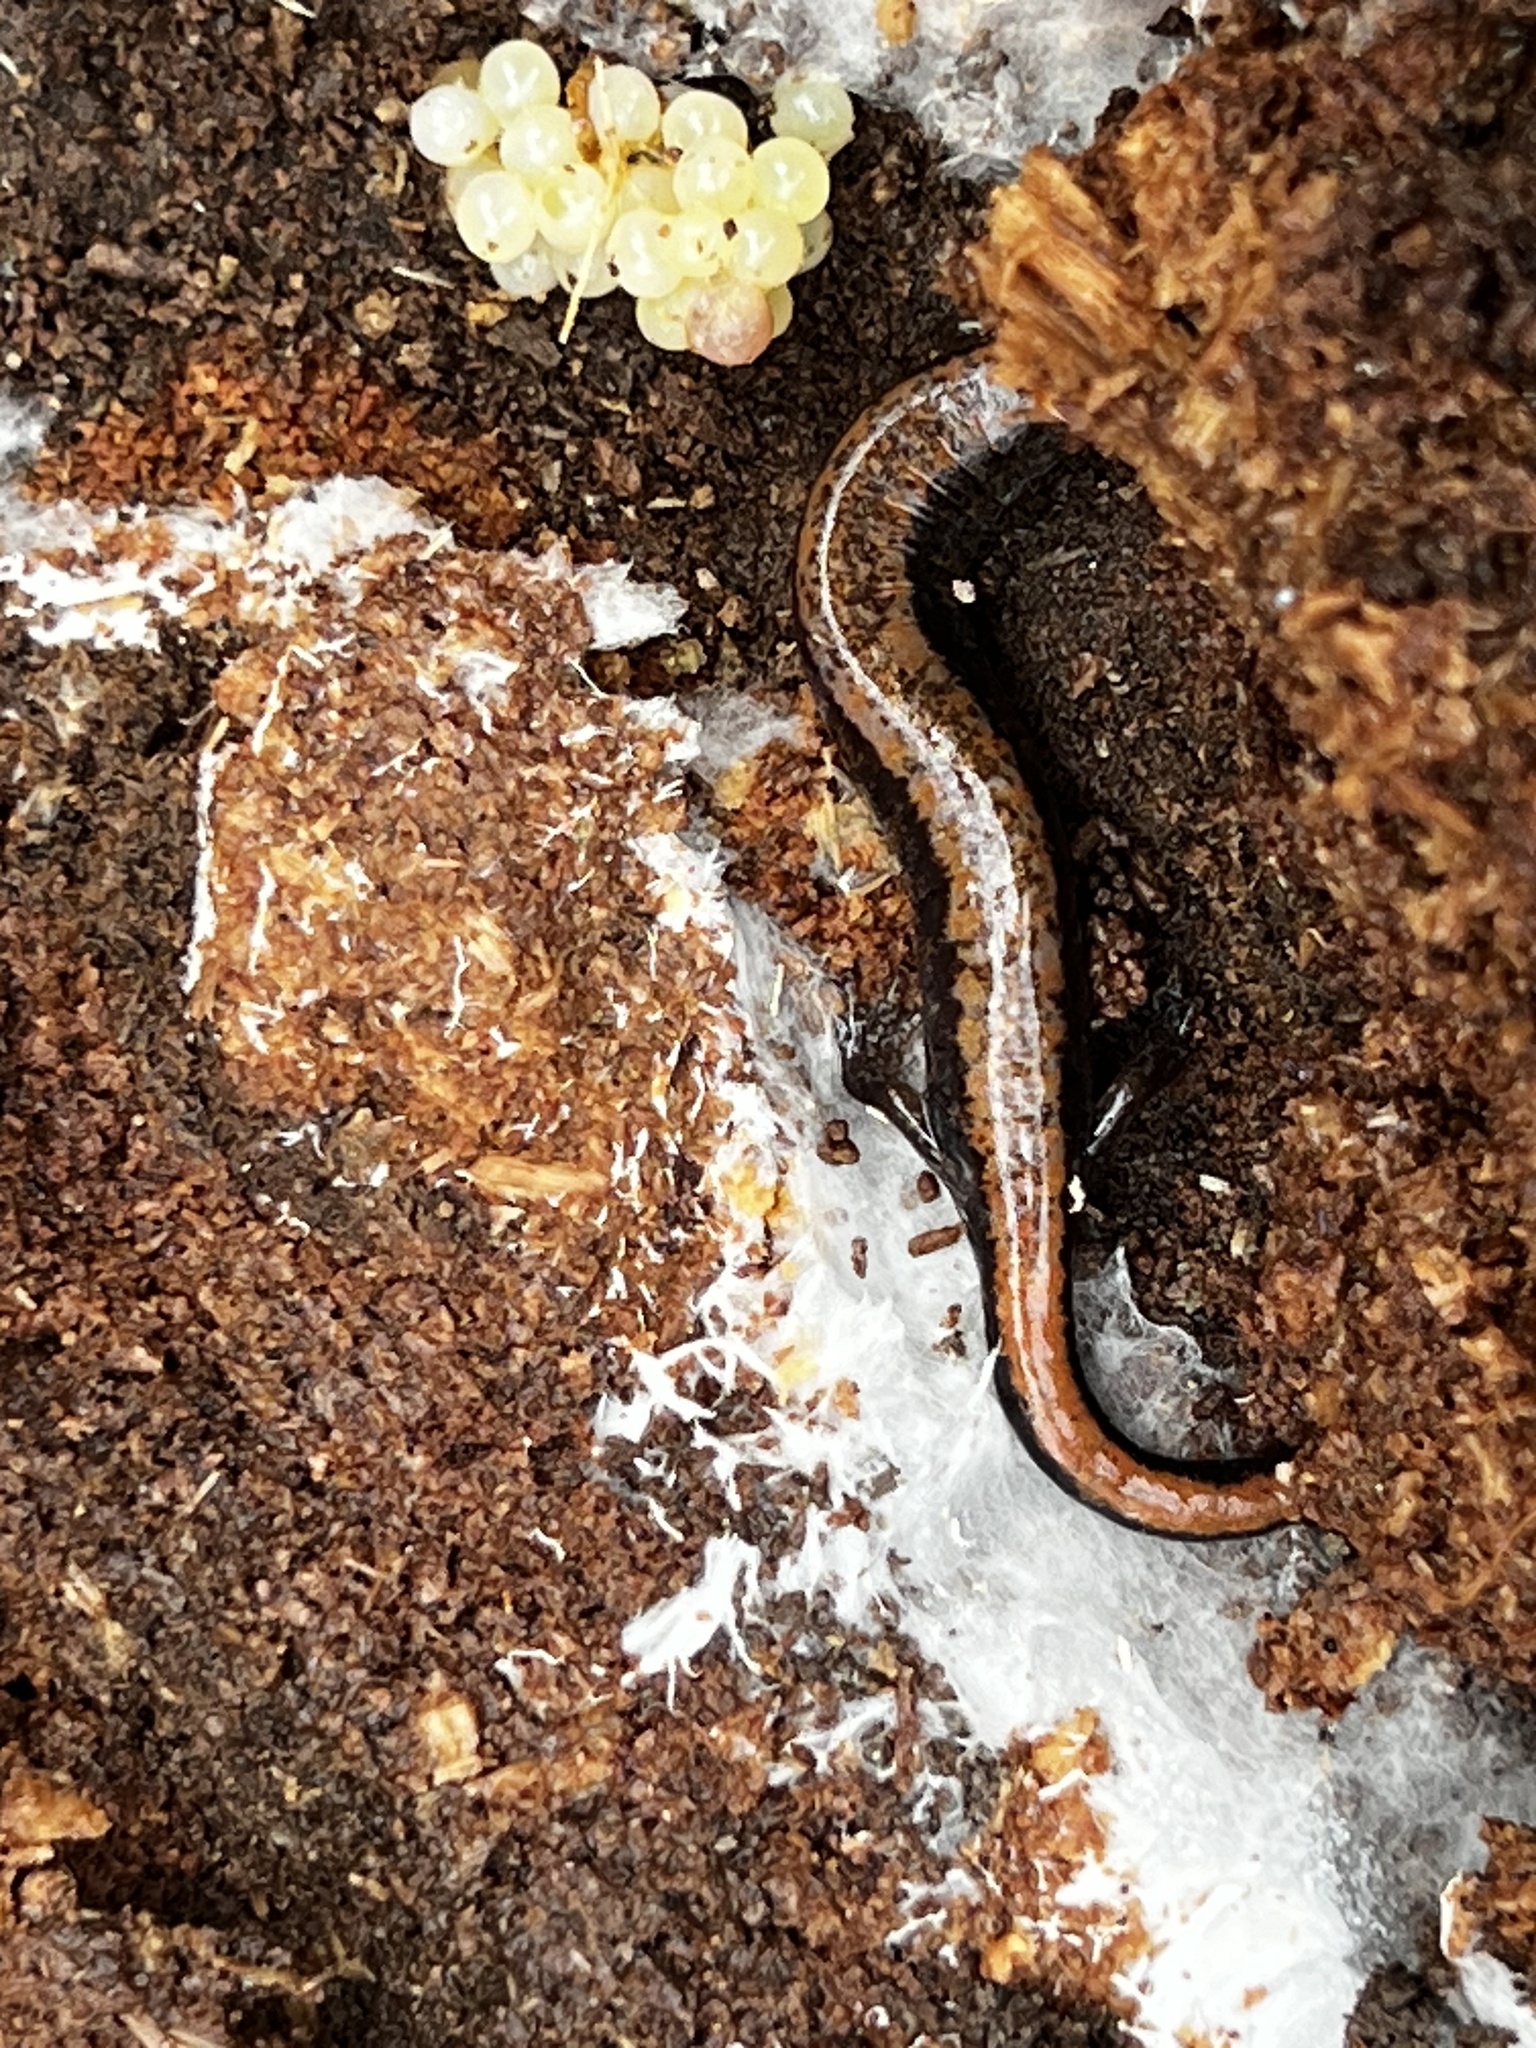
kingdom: Animalia
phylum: Chordata
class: Amphibia
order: Caudata
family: Plethodontidae
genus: Plethodon
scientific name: Plethodon cinereus
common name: Redback salamander
